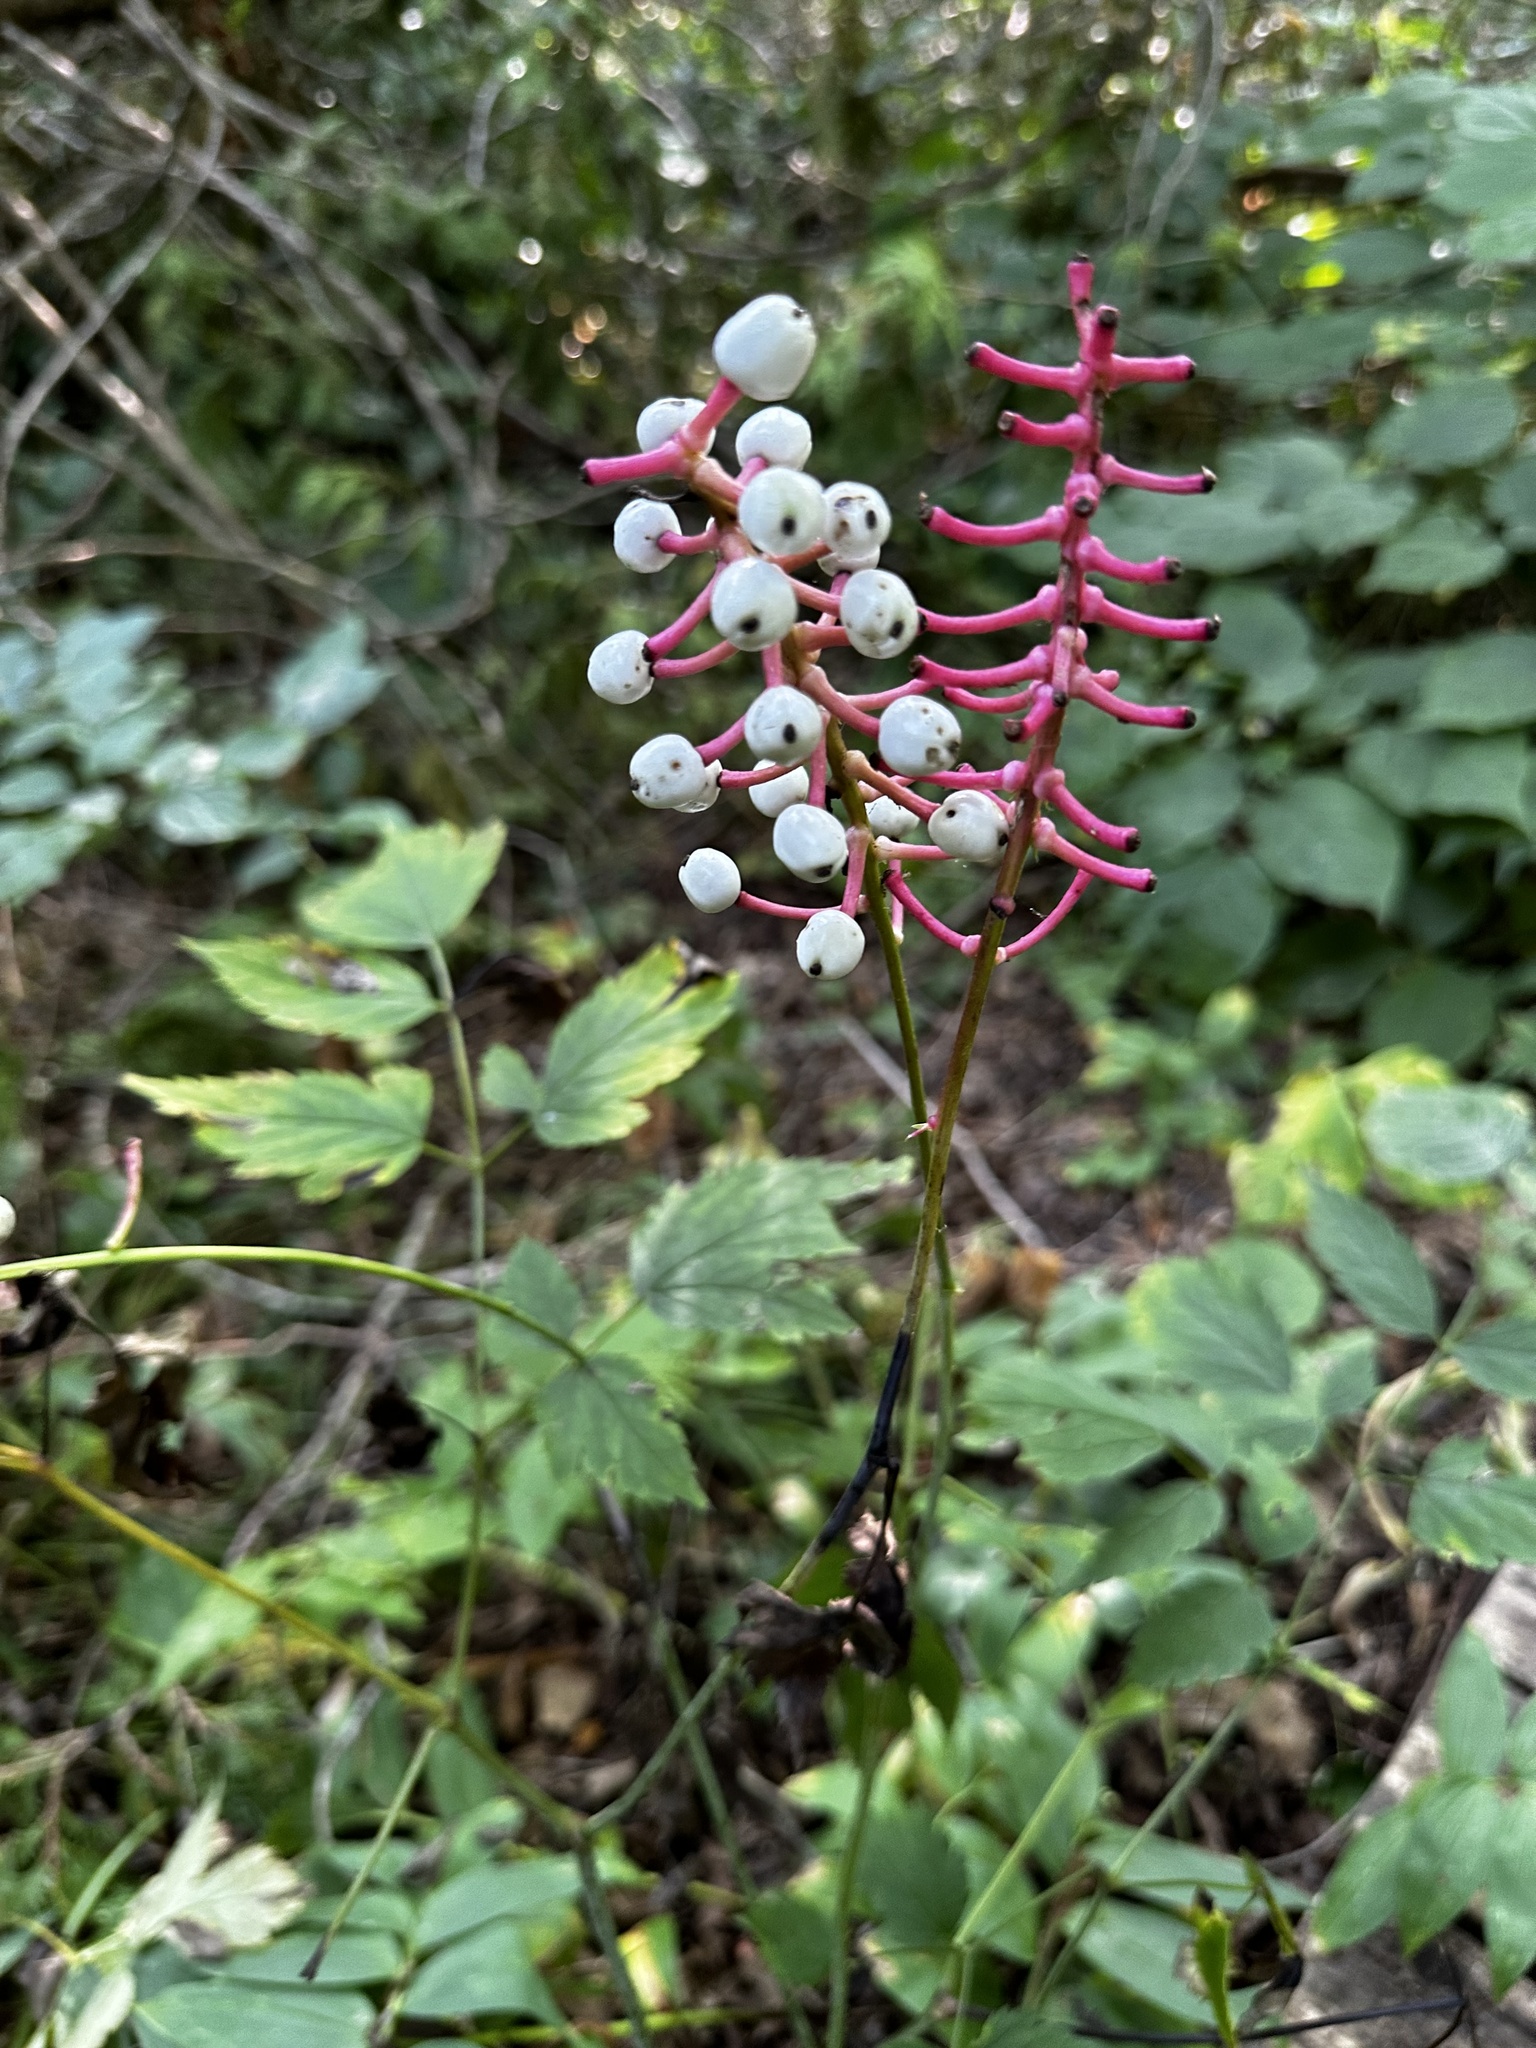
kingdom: Plantae
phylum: Tracheophyta
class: Magnoliopsida
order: Ranunculales
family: Ranunculaceae
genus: Actaea
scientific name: Actaea pachypoda
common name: Doll's-eyes
